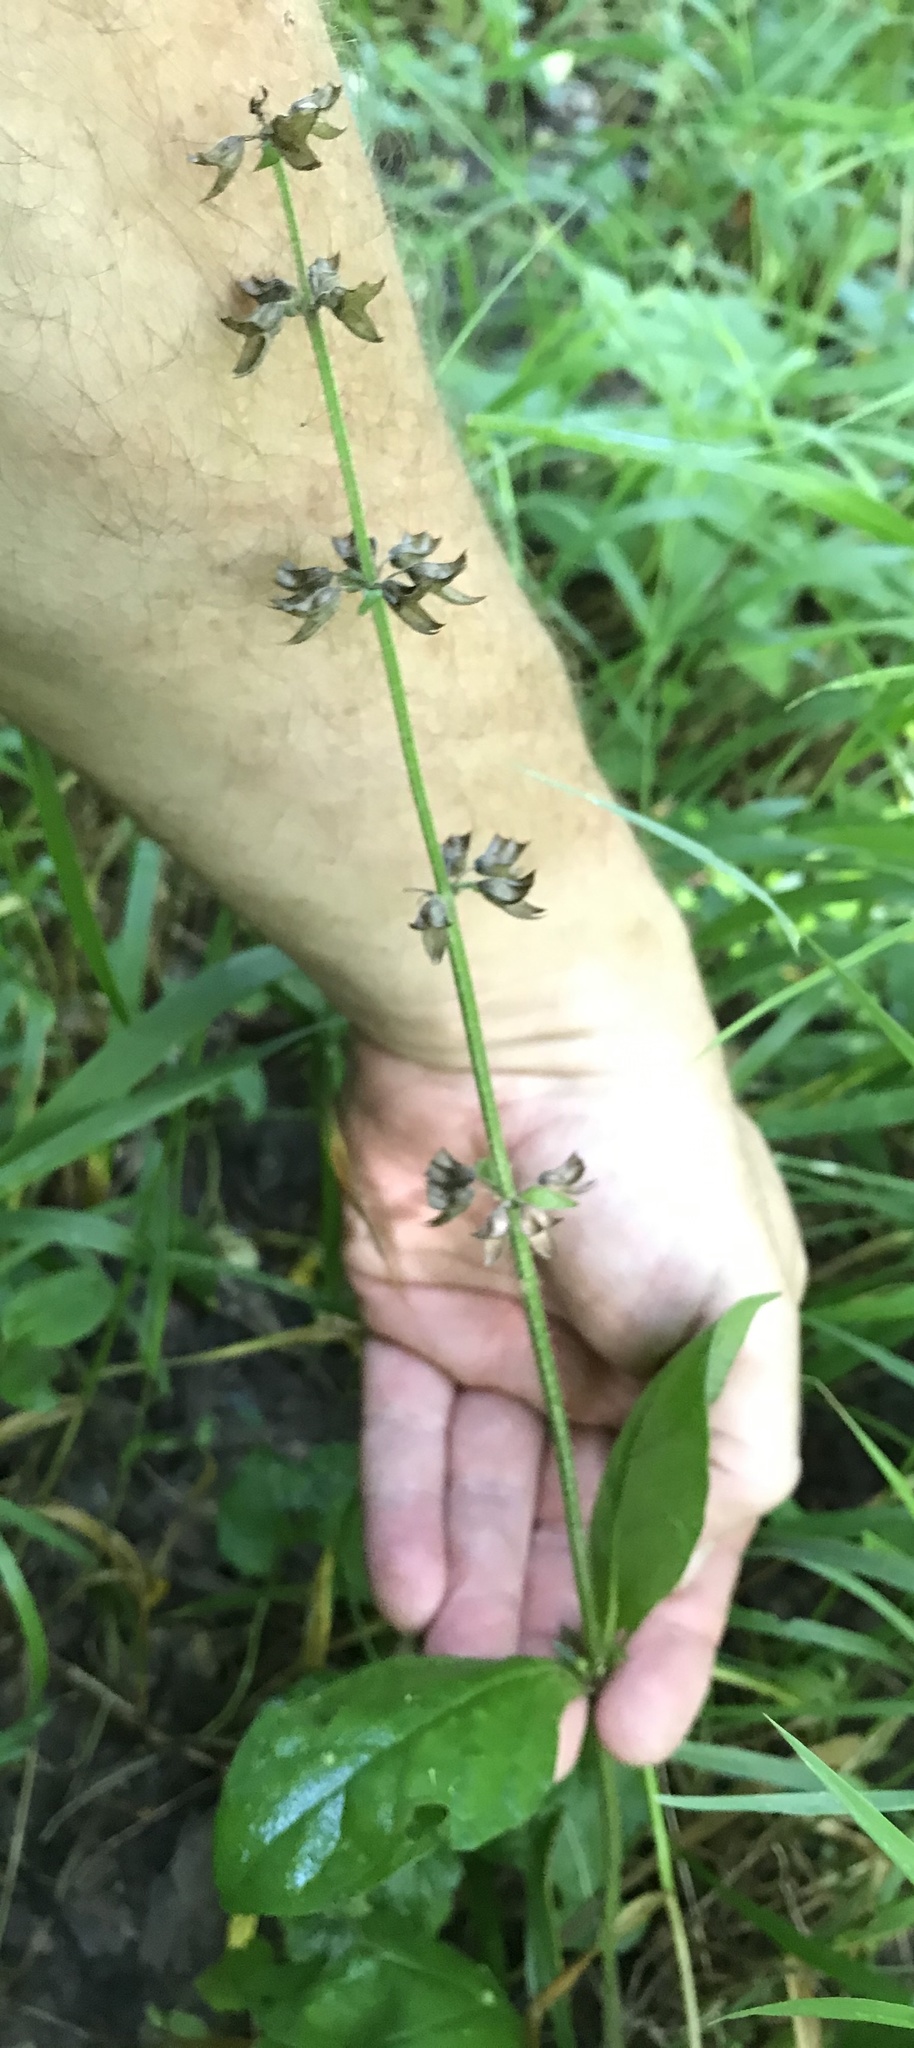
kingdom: Plantae
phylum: Tracheophyta
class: Magnoliopsida
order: Lamiales
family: Lamiaceae
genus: Salvia
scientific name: Salvia lyrata
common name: Cancerweed
